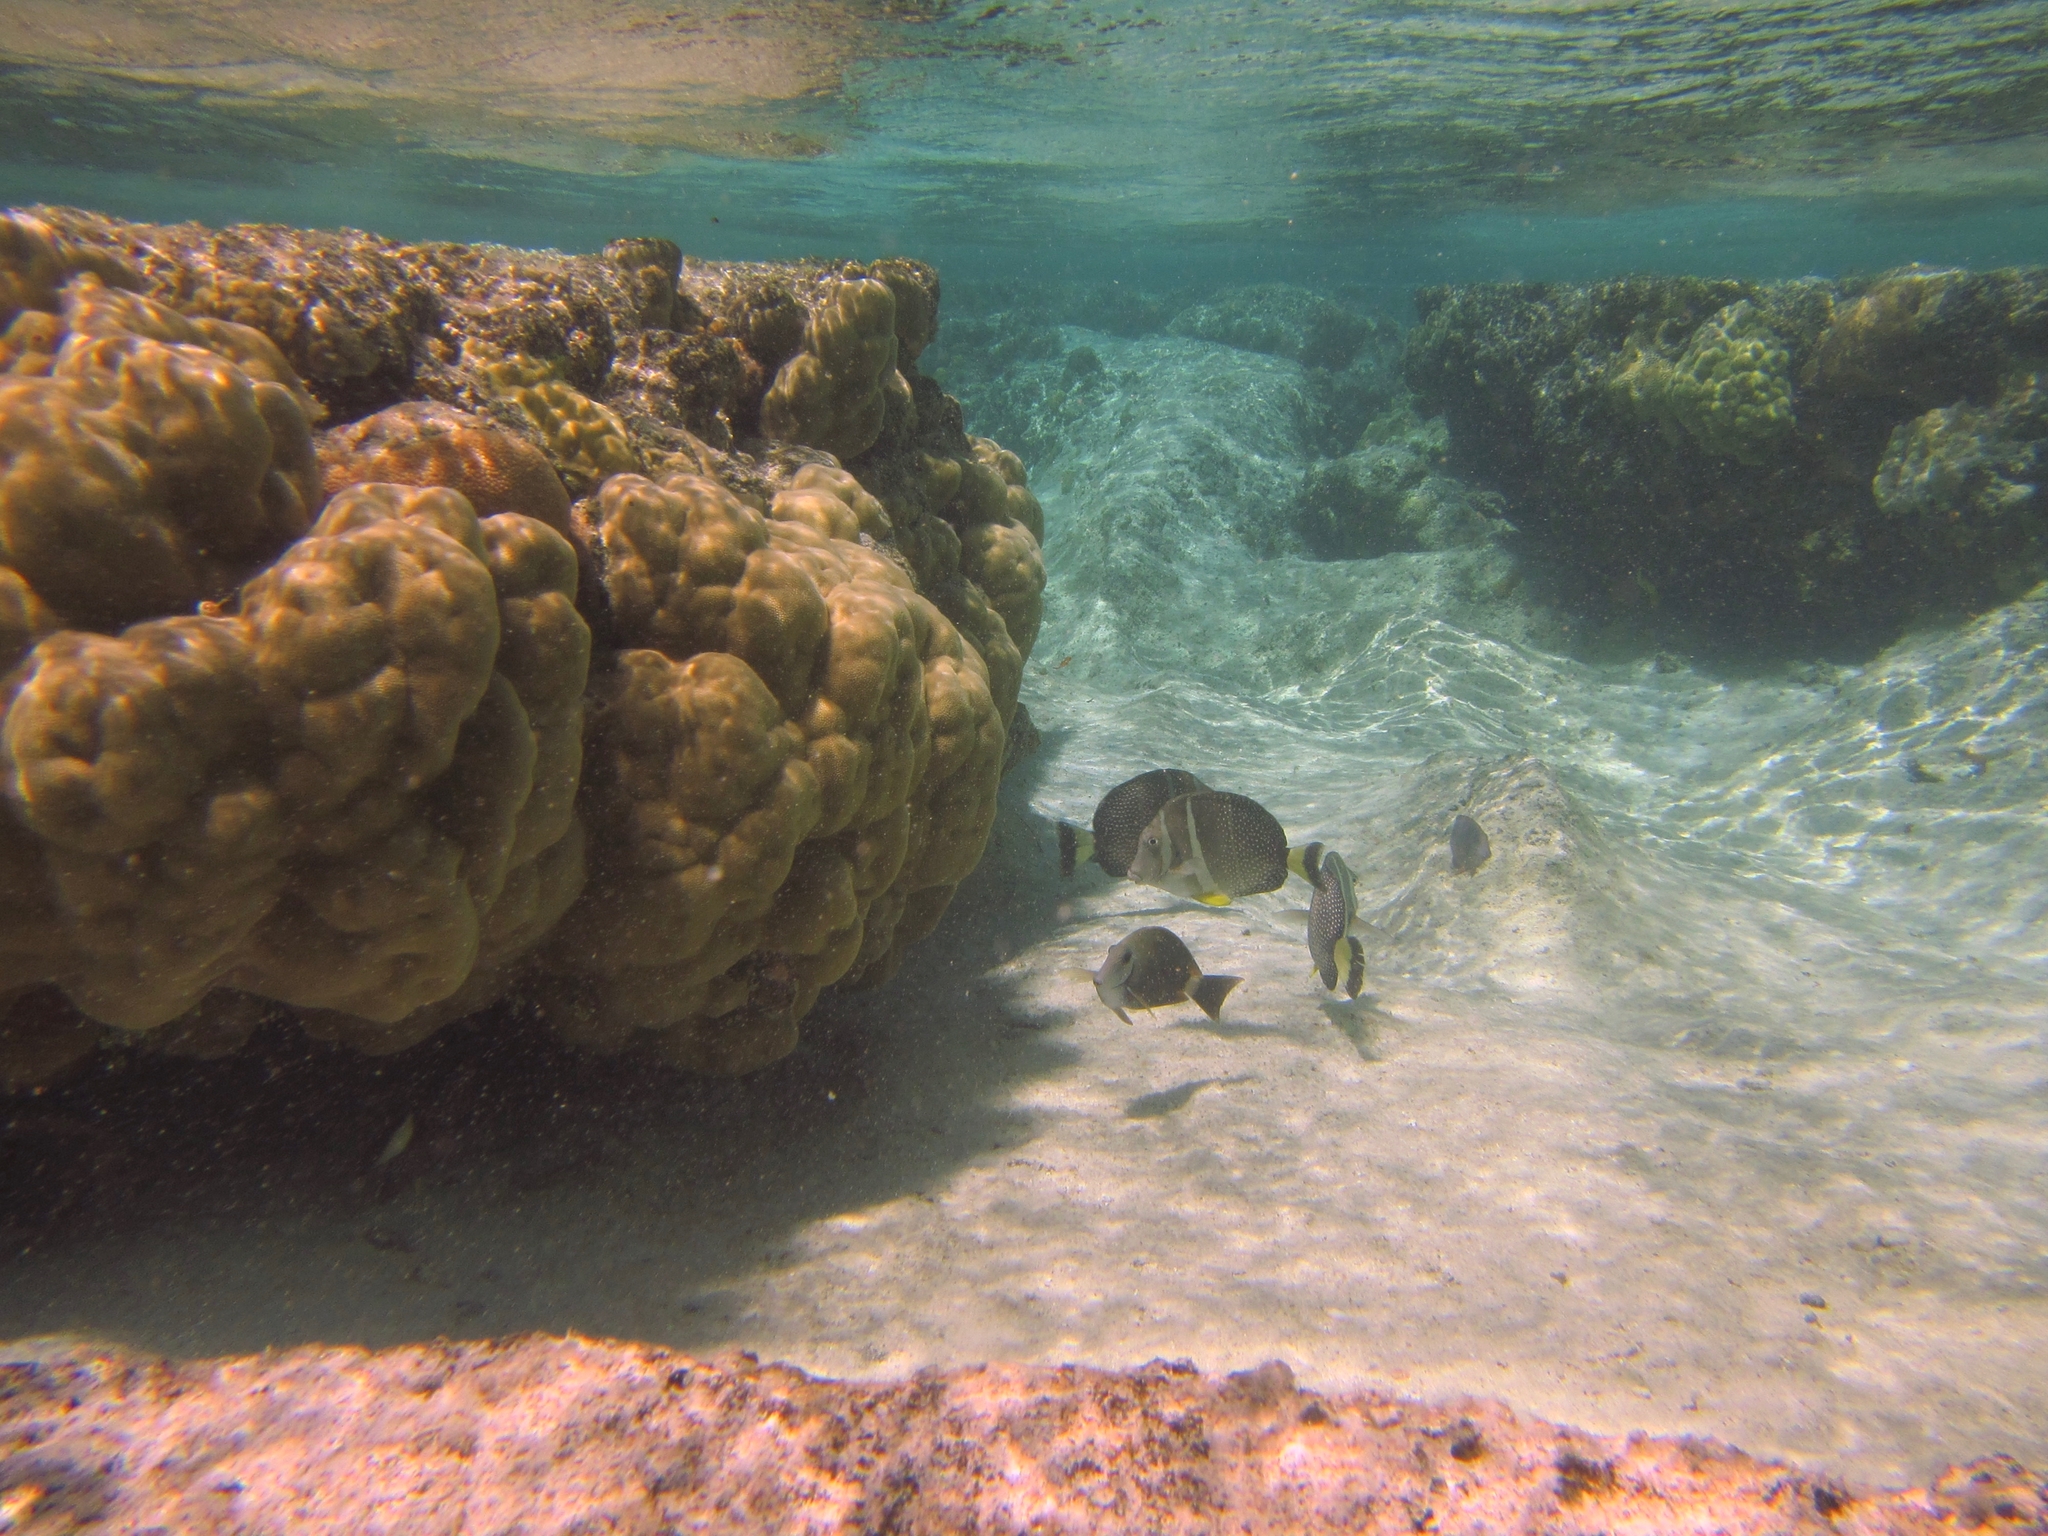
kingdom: Animalia
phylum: Chordata
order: Perciformes
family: Acanthuridae
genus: Acanthurus
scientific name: Acanthurus guttatus
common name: Whitespotted surgeonfish
